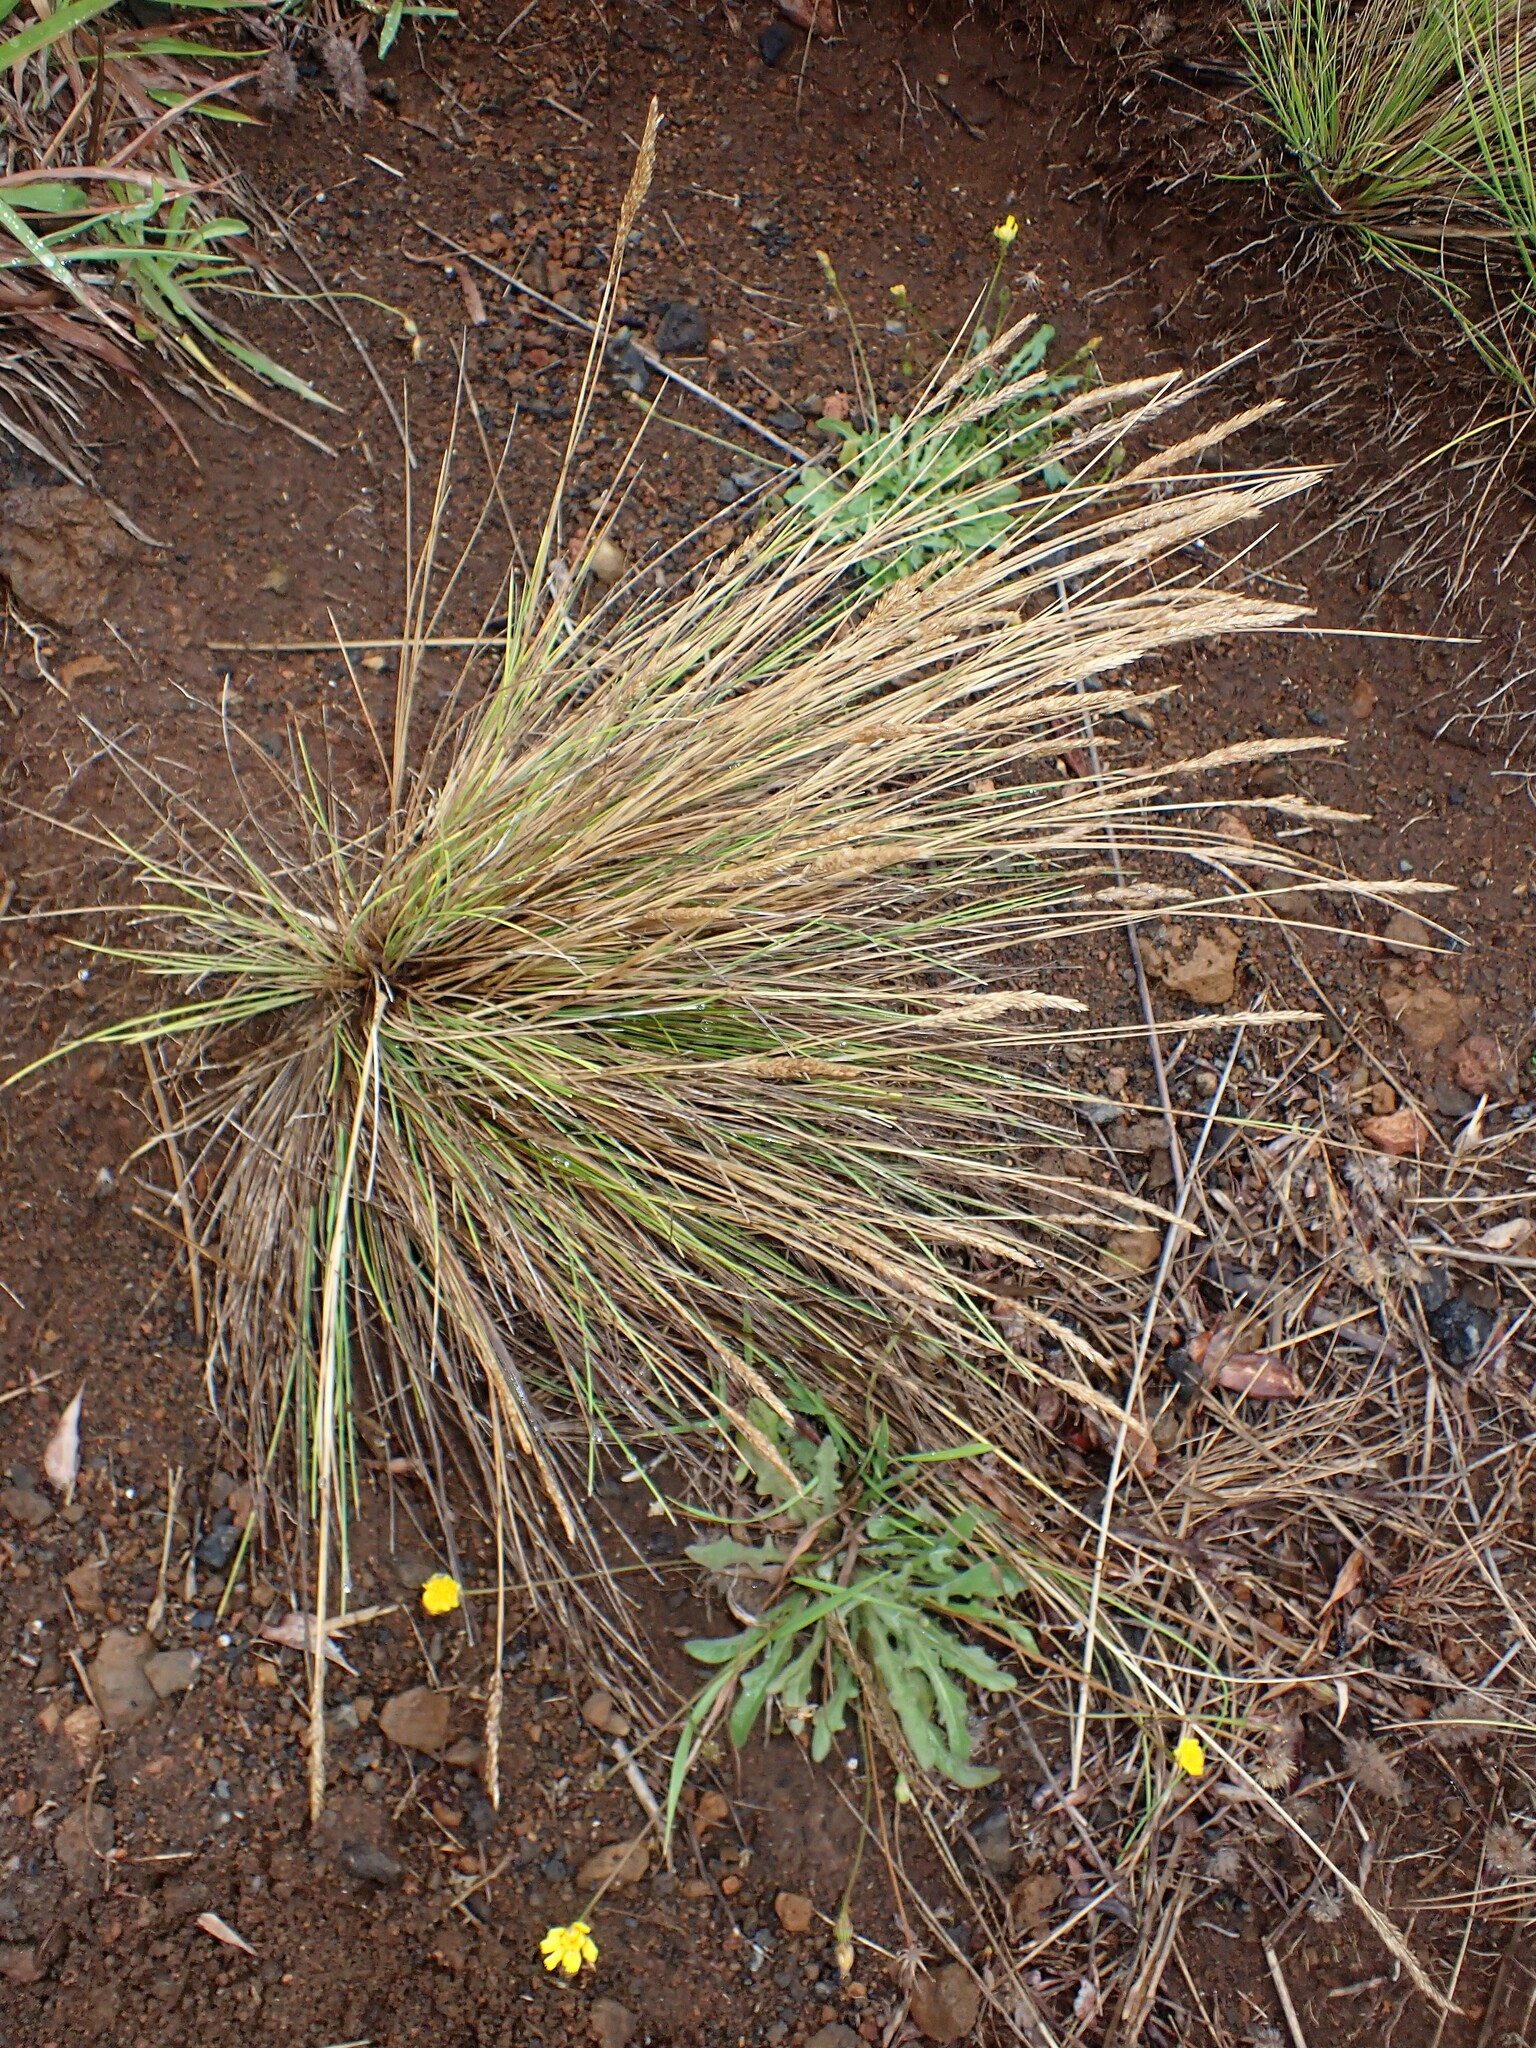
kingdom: Plantae
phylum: Tracheophyta
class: Liliopsida
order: Poales
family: Poaceae
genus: Festuca
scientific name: Festuca petraea
